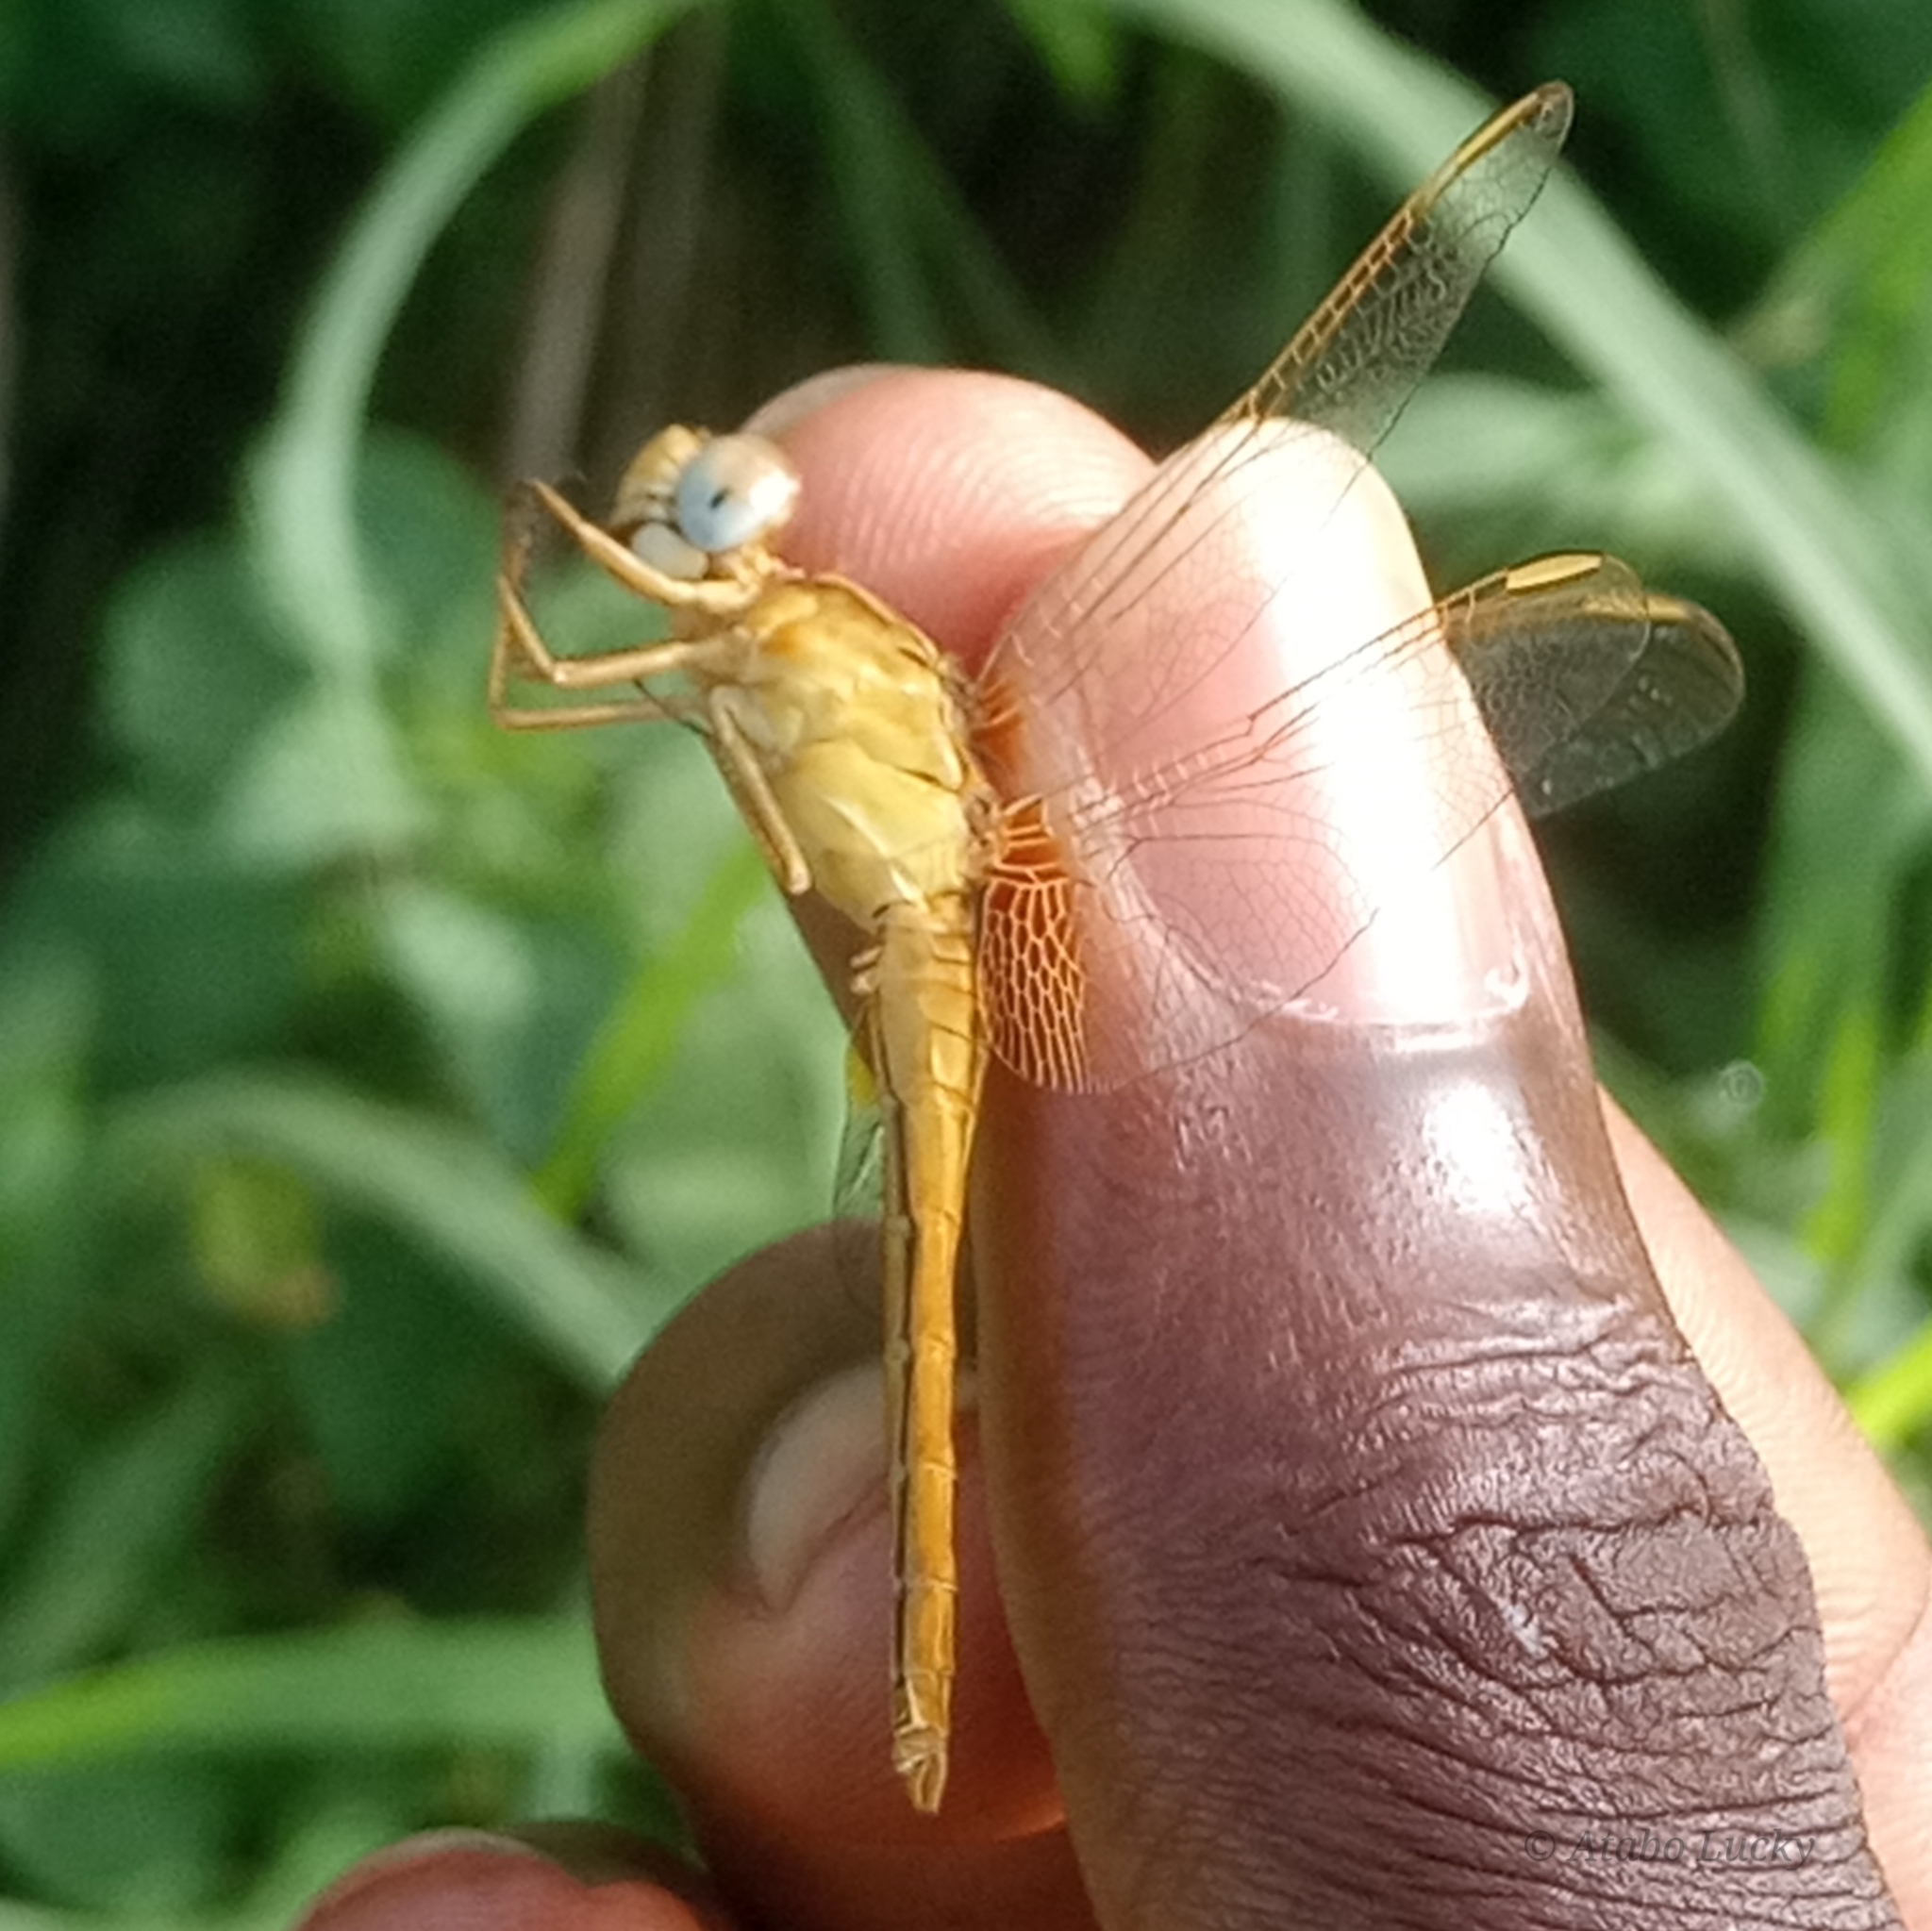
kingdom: Animalia
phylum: Arthropoda
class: Insecta
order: Odonata
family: Libellulidae
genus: Crocothemis
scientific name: Crocothemis erythraea
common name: Scarlet dragonfly
